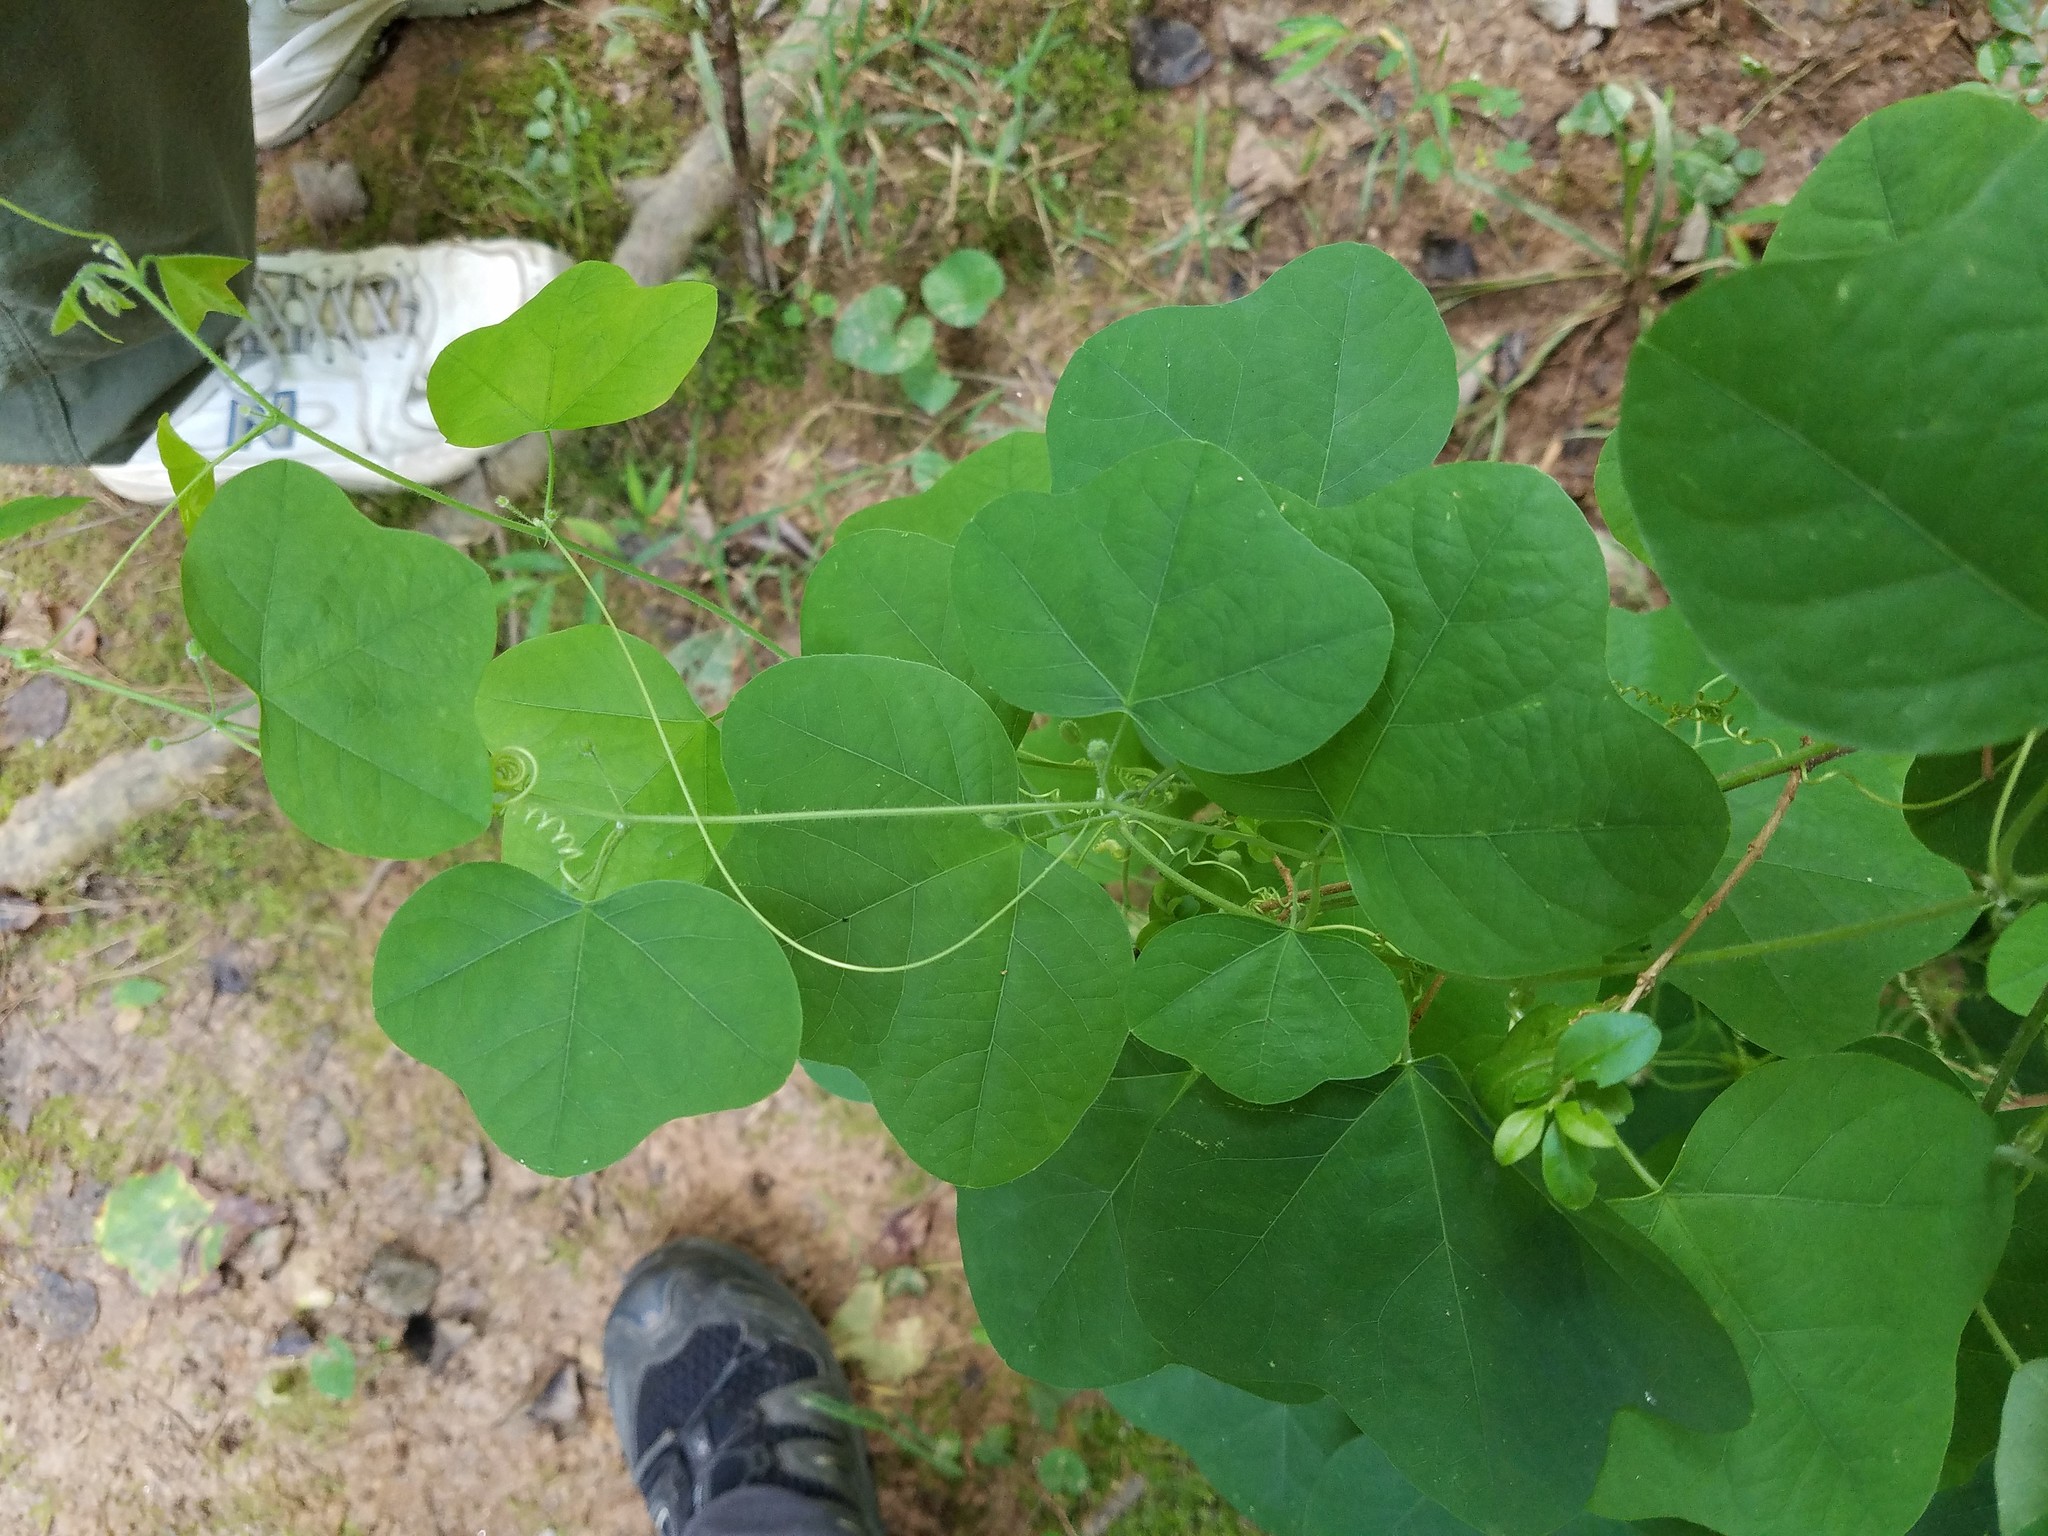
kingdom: Plantae
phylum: Tracheophyta
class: Magnoliopsida
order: Malpighiales
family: Passifloraceae
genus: Passiflora
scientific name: Passiflora lutea
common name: Yellow passionflower
